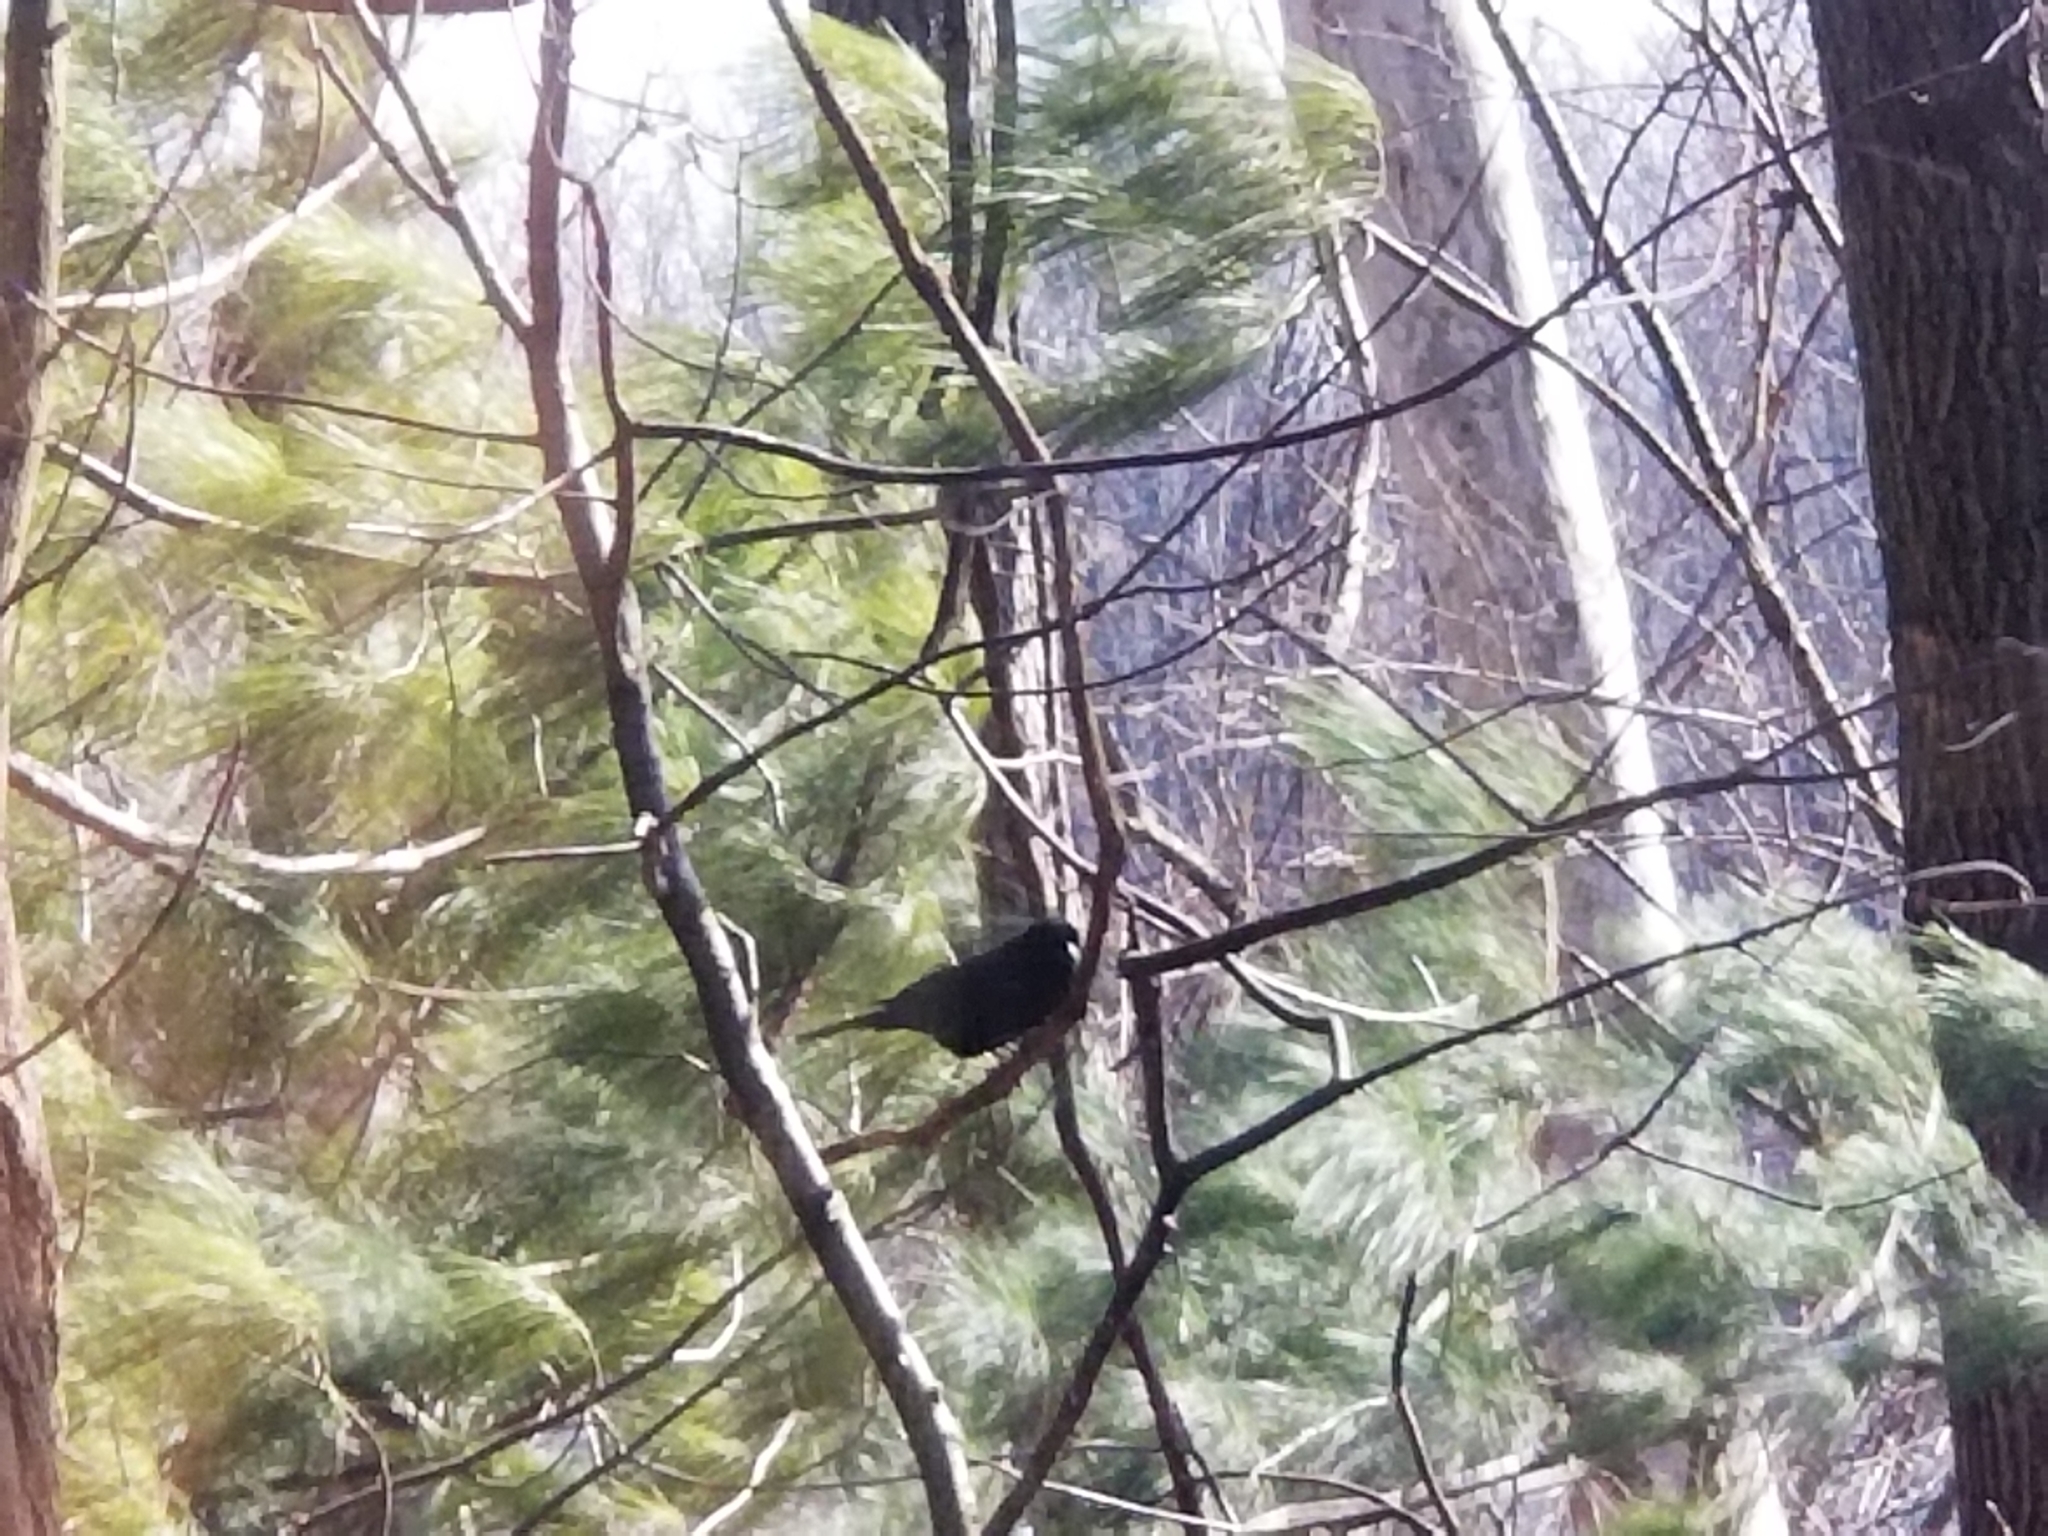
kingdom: Animalia
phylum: Chordata
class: Aves
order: Passeriformes
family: Icteridae
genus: Agelaius
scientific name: Agelaius phoeniceus
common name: Red-winged blackbird
